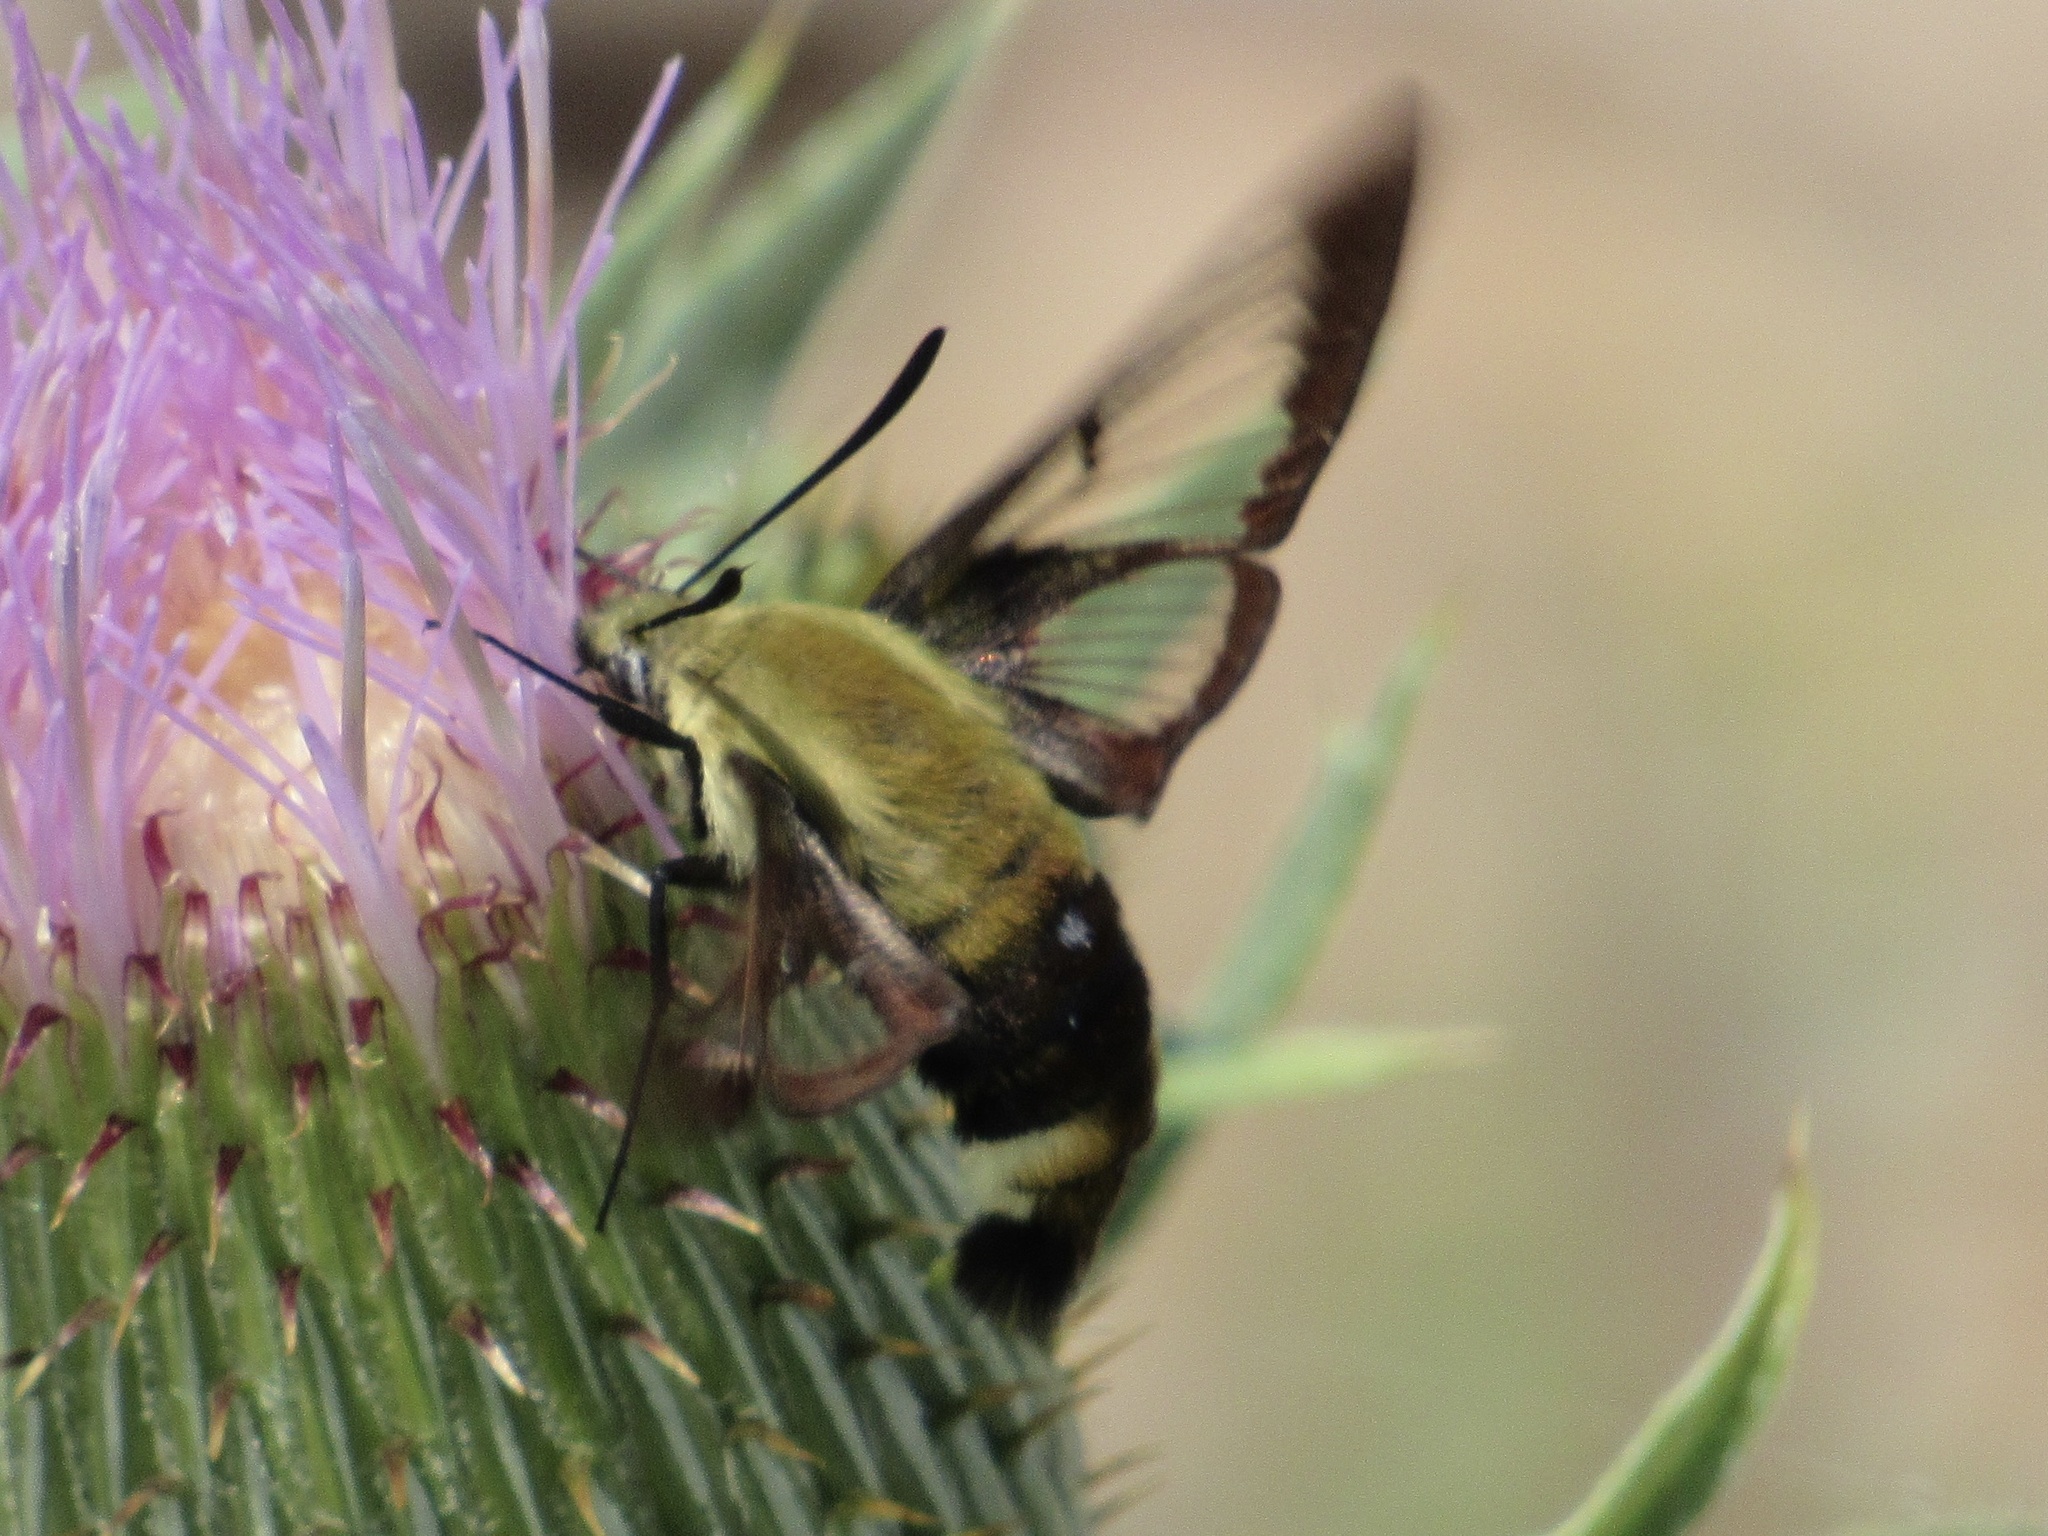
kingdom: Animalia
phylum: Arthropoda
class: Insecta
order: Lepidoptera
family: Sphingidae
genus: Hemaris
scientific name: Hemaris diffinis
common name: Bumblebee moth
